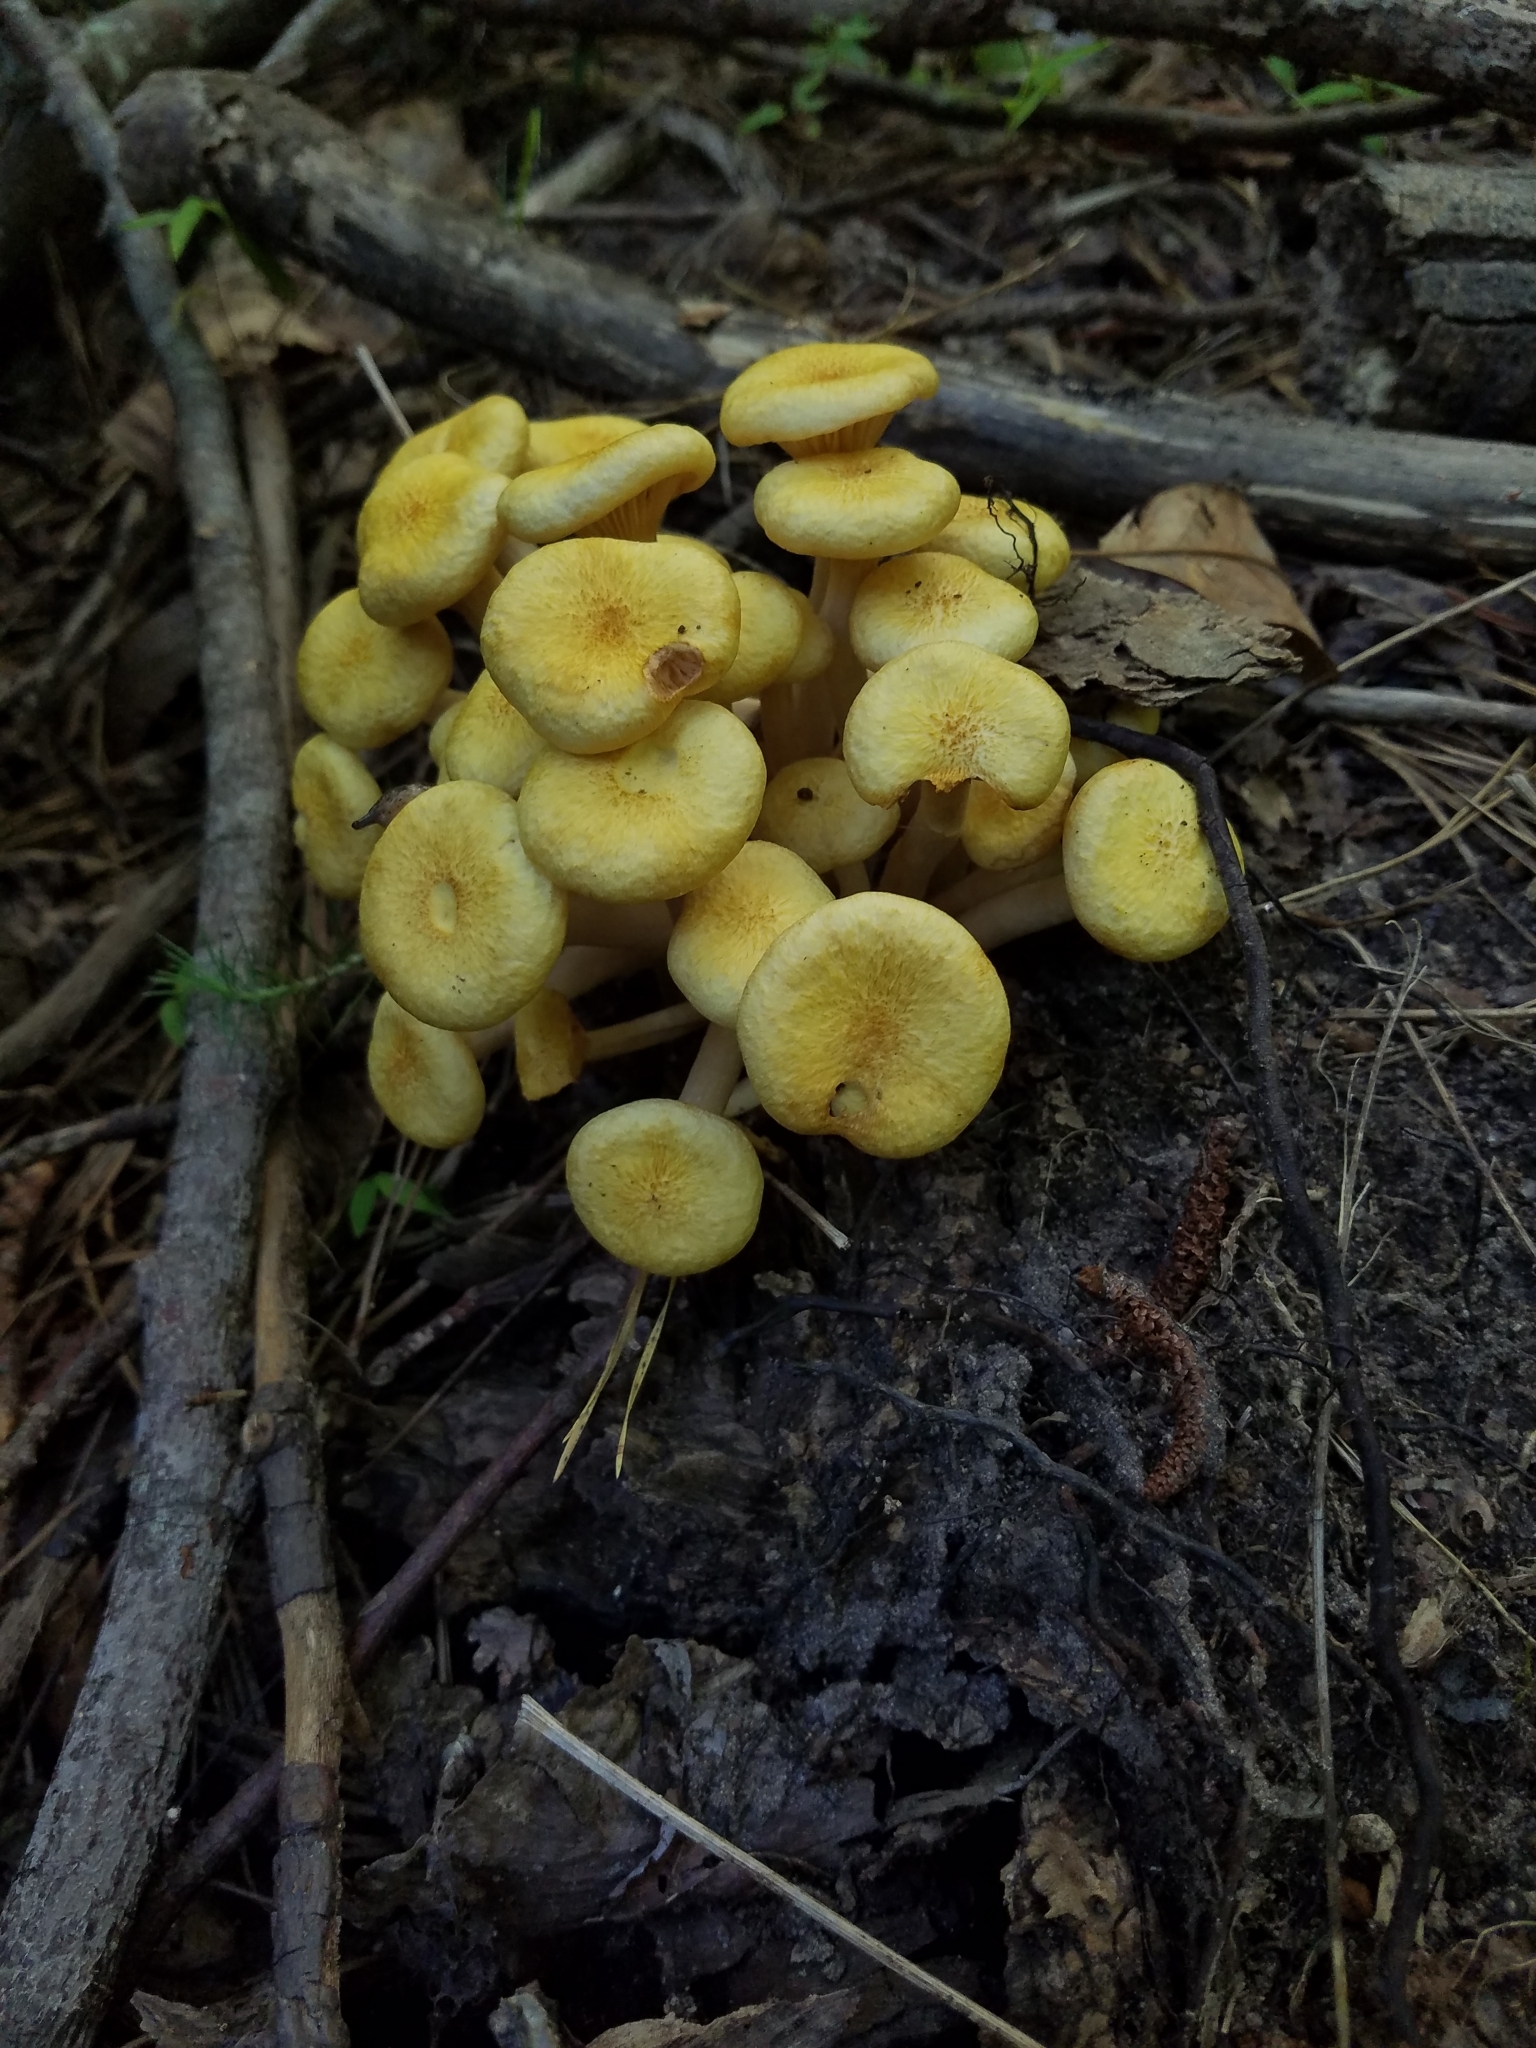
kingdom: Fungi
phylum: Basidiomycota
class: Agaricomycetes
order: Agaricales
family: Physalacriaceae
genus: Desarmillaria
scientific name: Desarmillaria caespitosa
